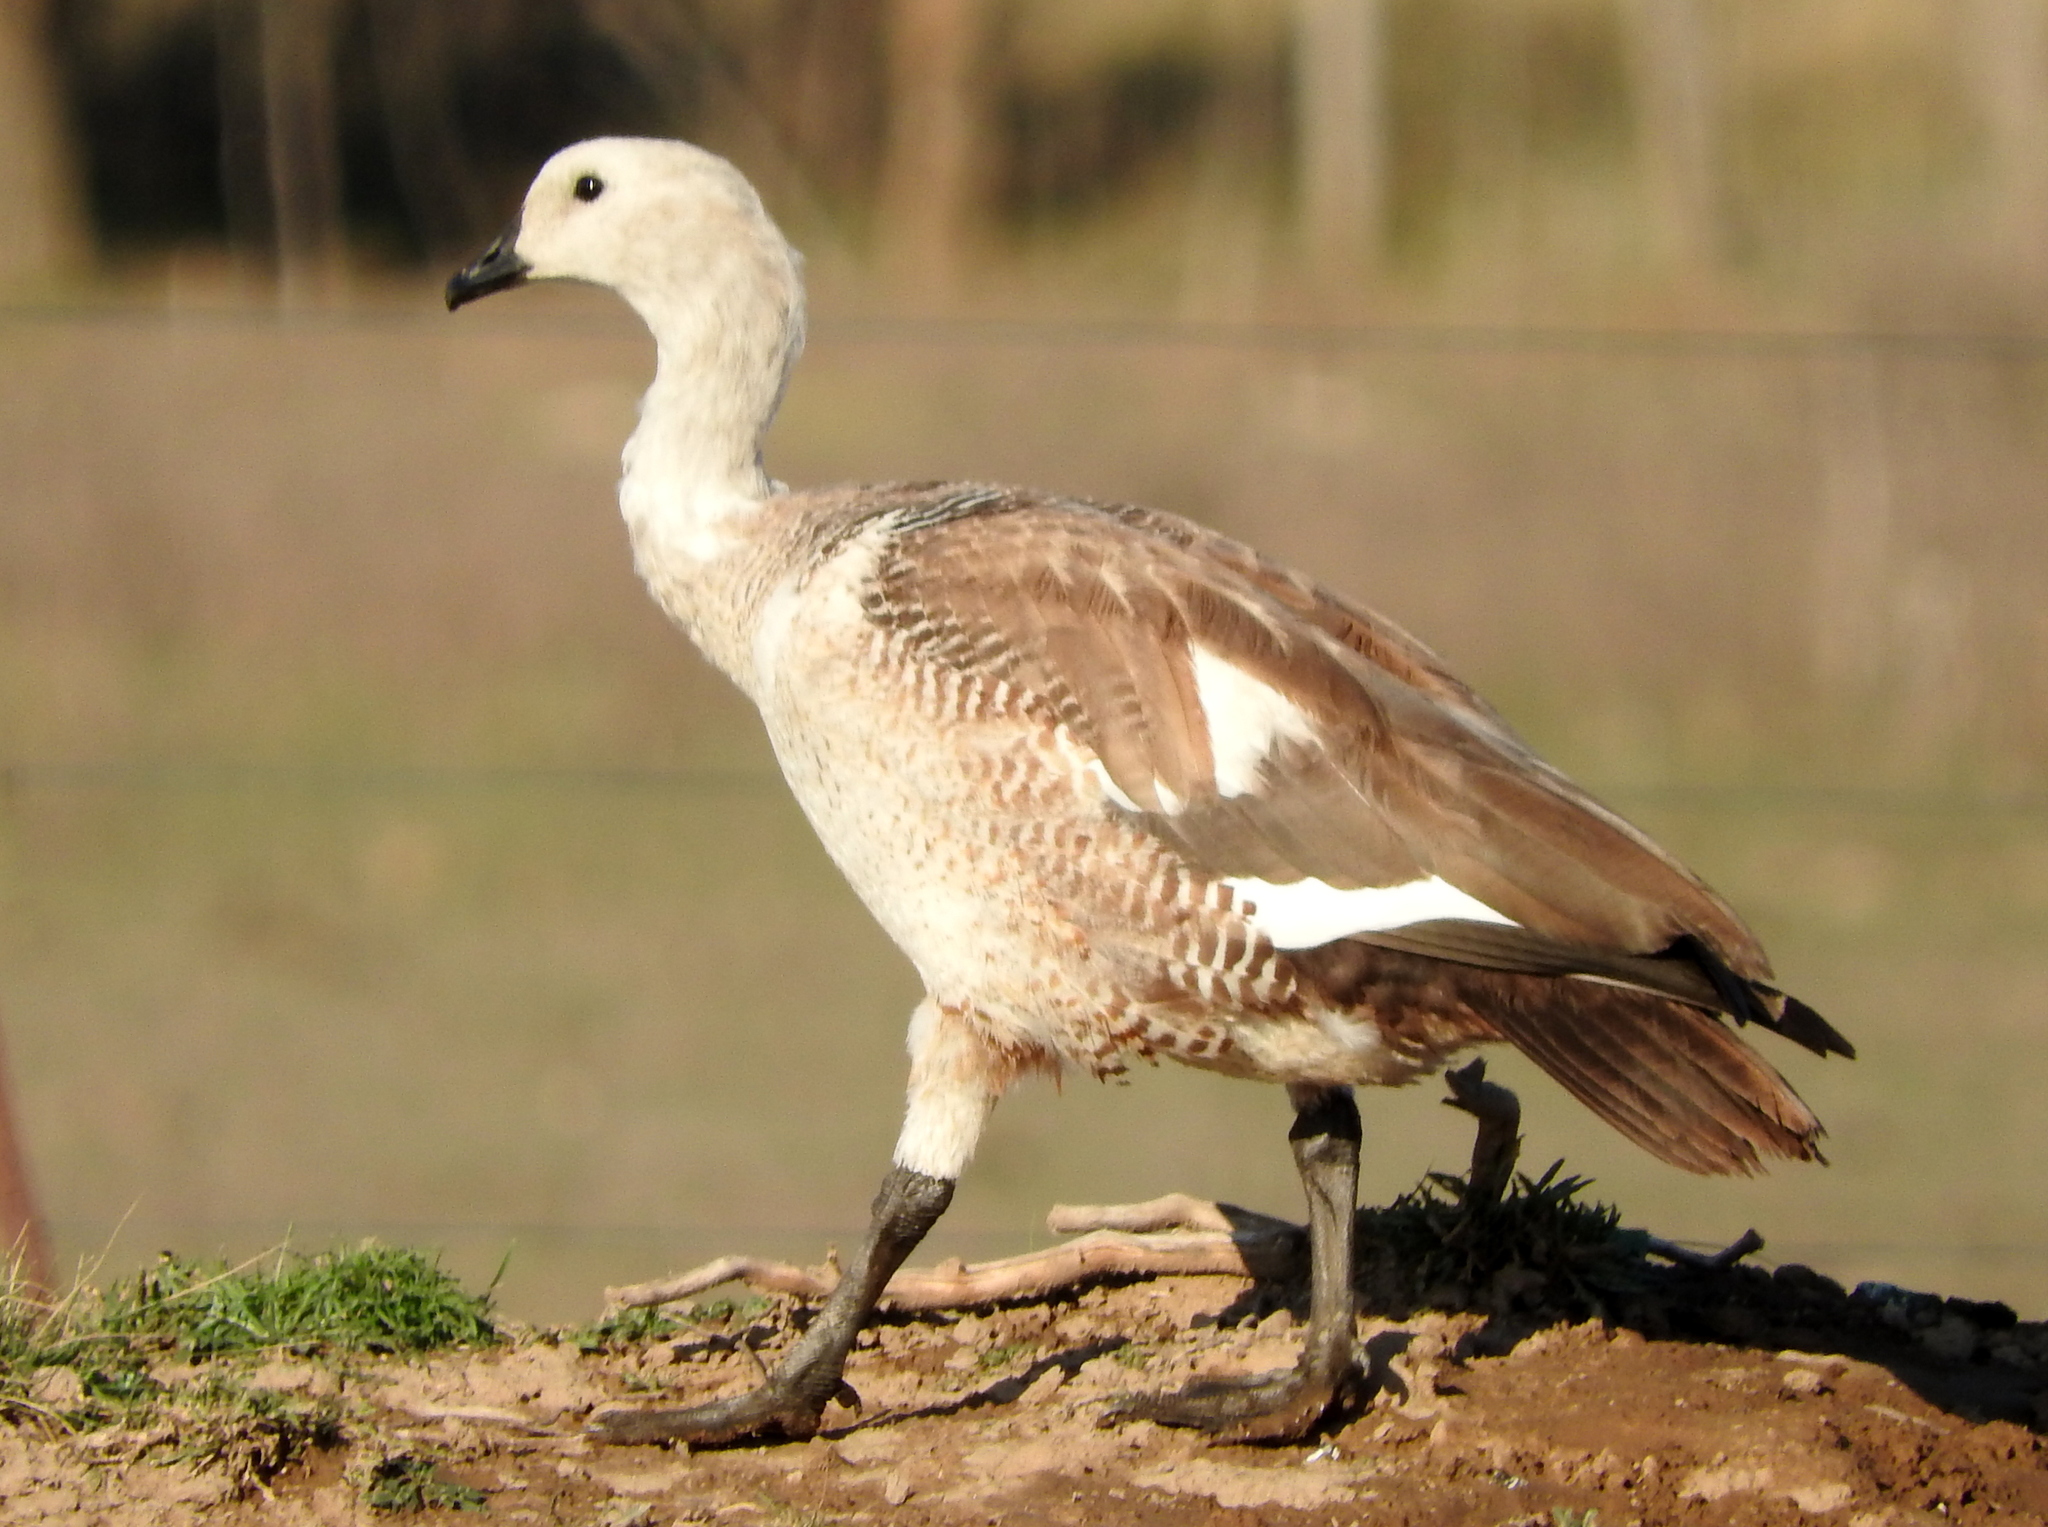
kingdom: Animalia
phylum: Chordata
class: Aves
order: Anseriformes
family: Anatidae
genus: Chloephaga
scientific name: Chloephaga picta
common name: Upland goose
